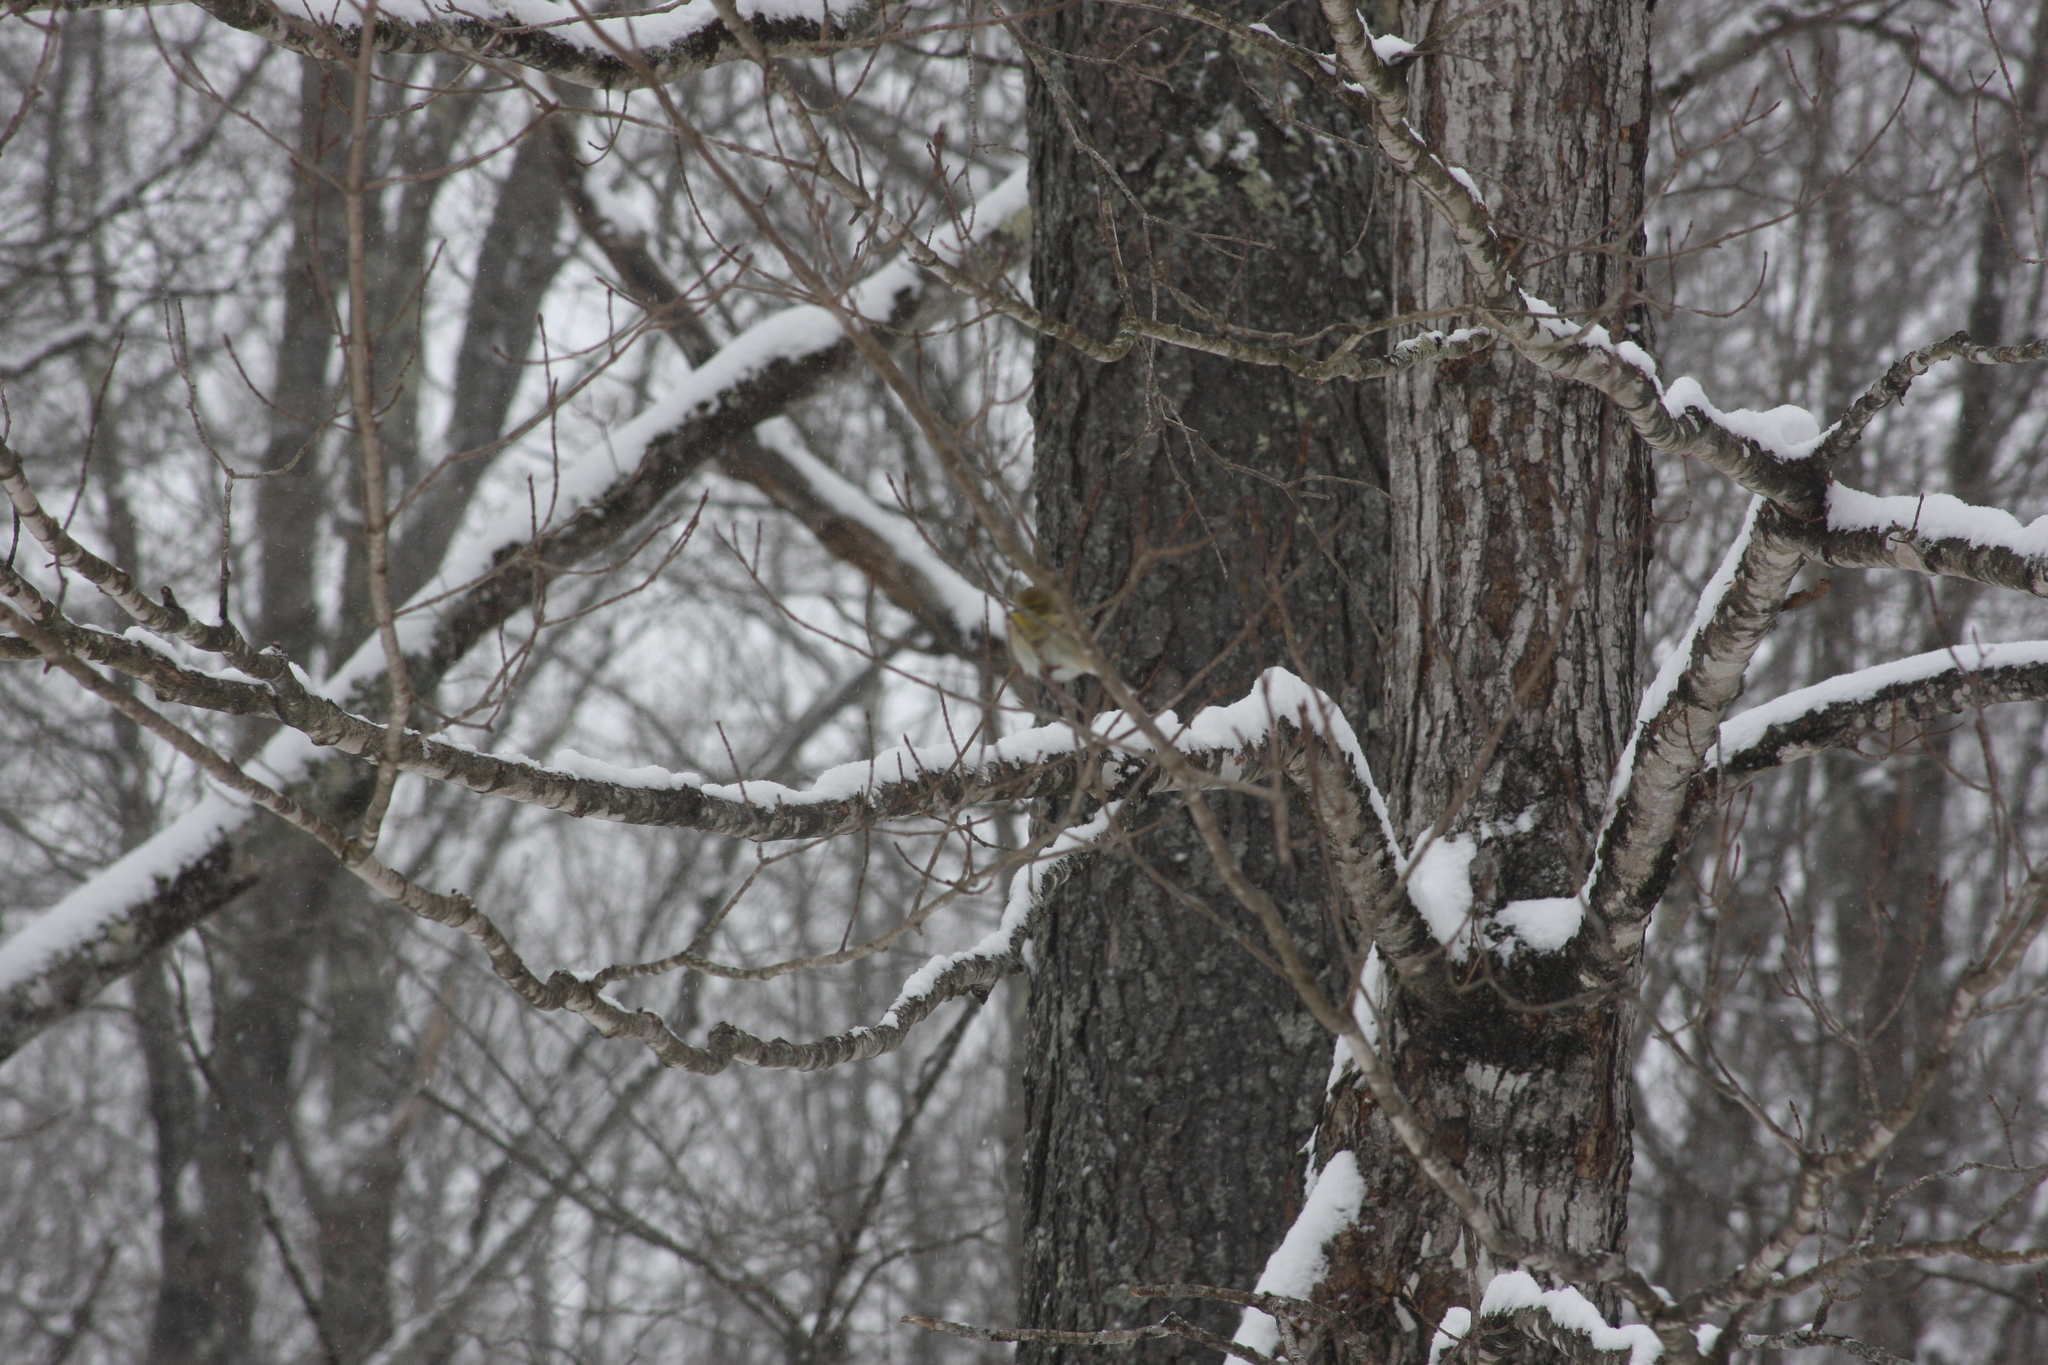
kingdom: Animalia
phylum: Chordata
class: Aves
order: Passeriformes
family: Fringillidae
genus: Spinus
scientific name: Spinus tristis
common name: American goldfinch
